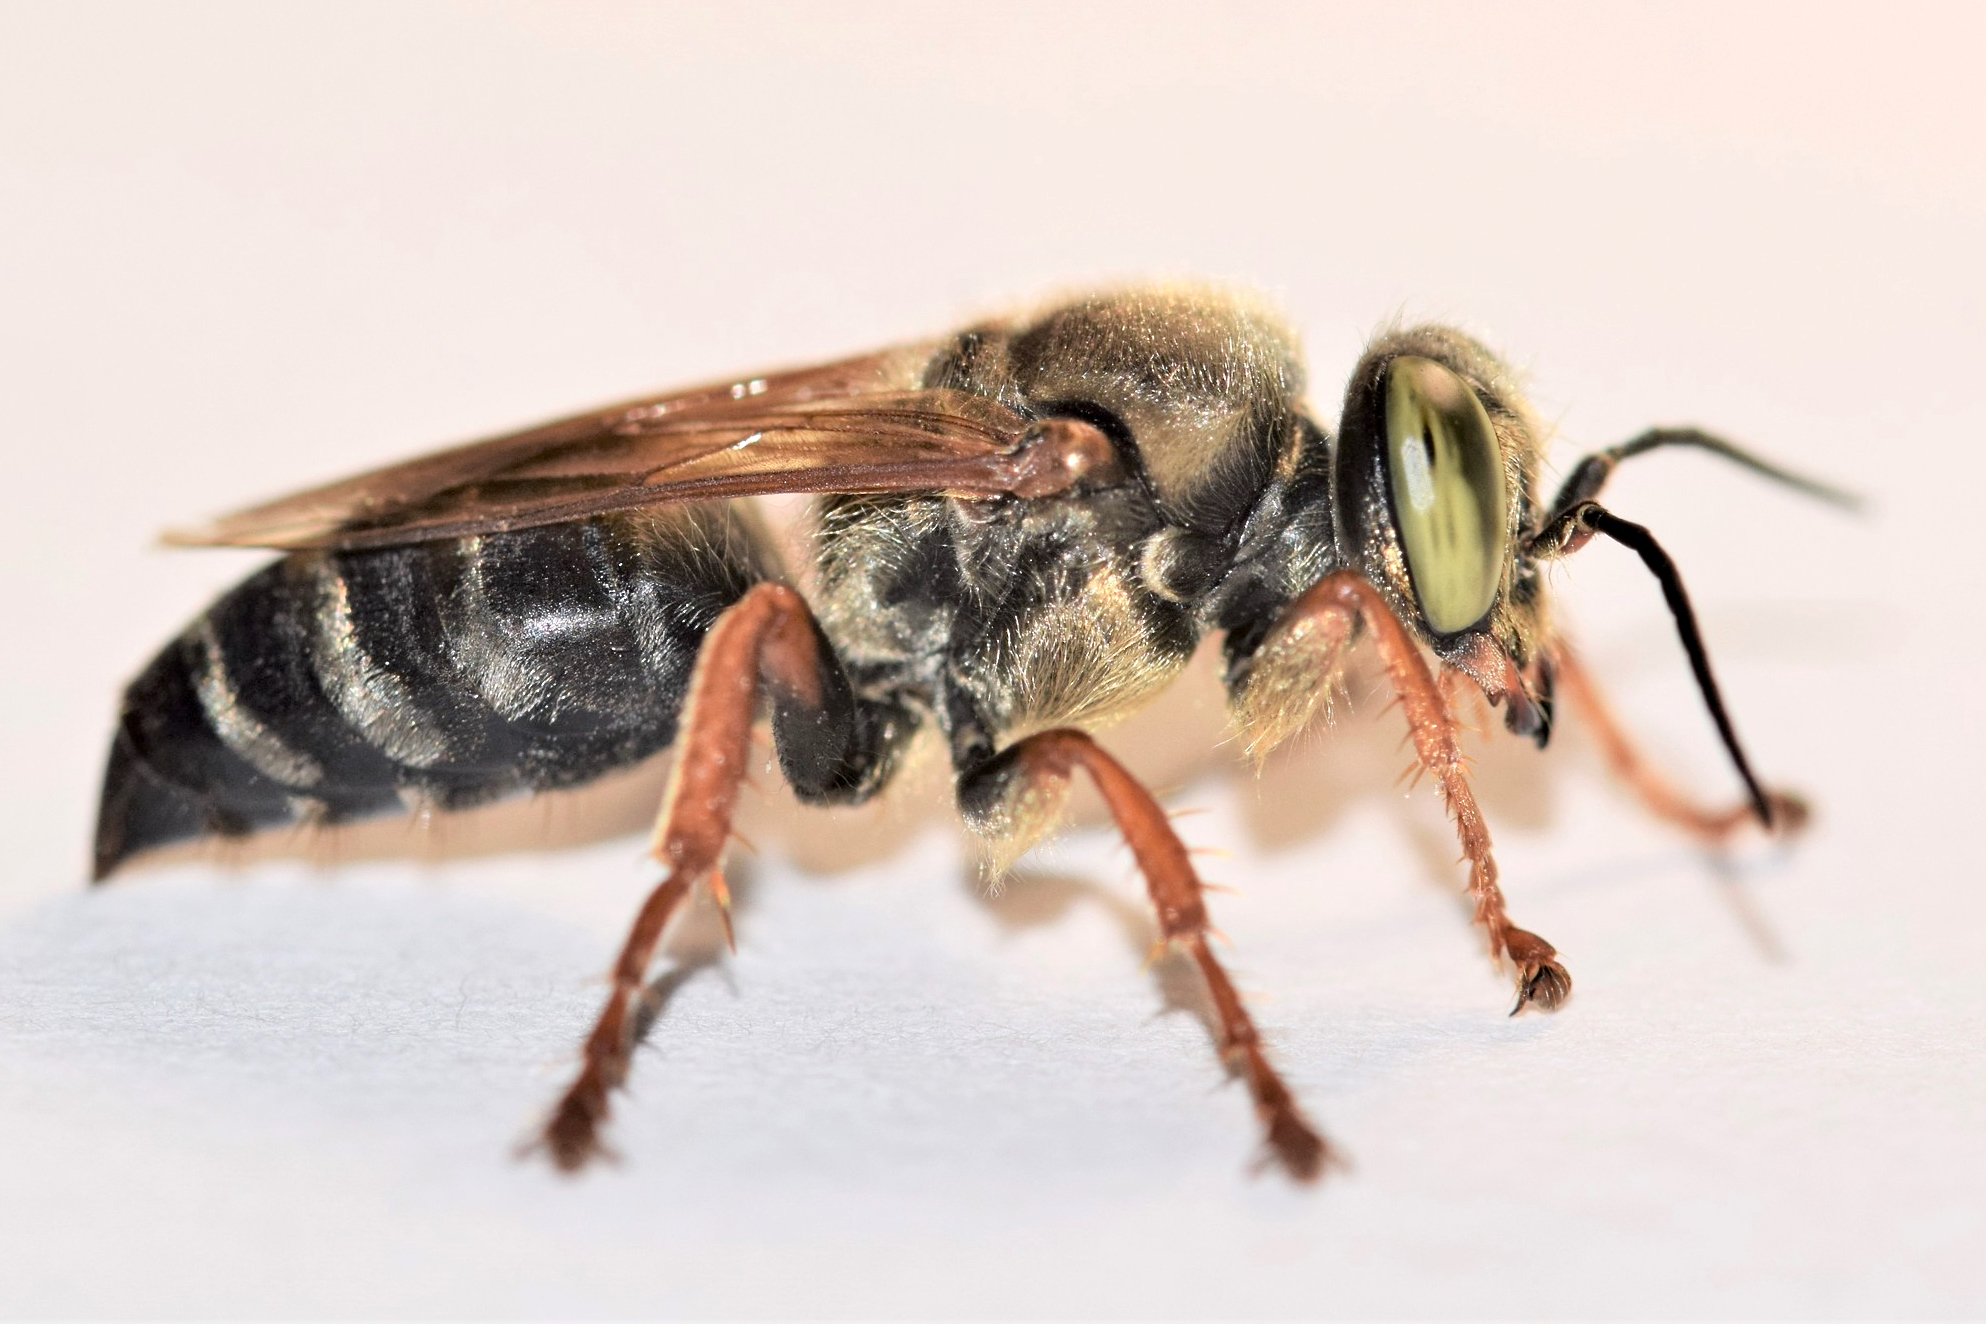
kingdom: Animalia
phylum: Arthropoda
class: Insecta
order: Hymenoptera
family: Crabronidae
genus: Tachytes
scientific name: Tachytes aurulentus
